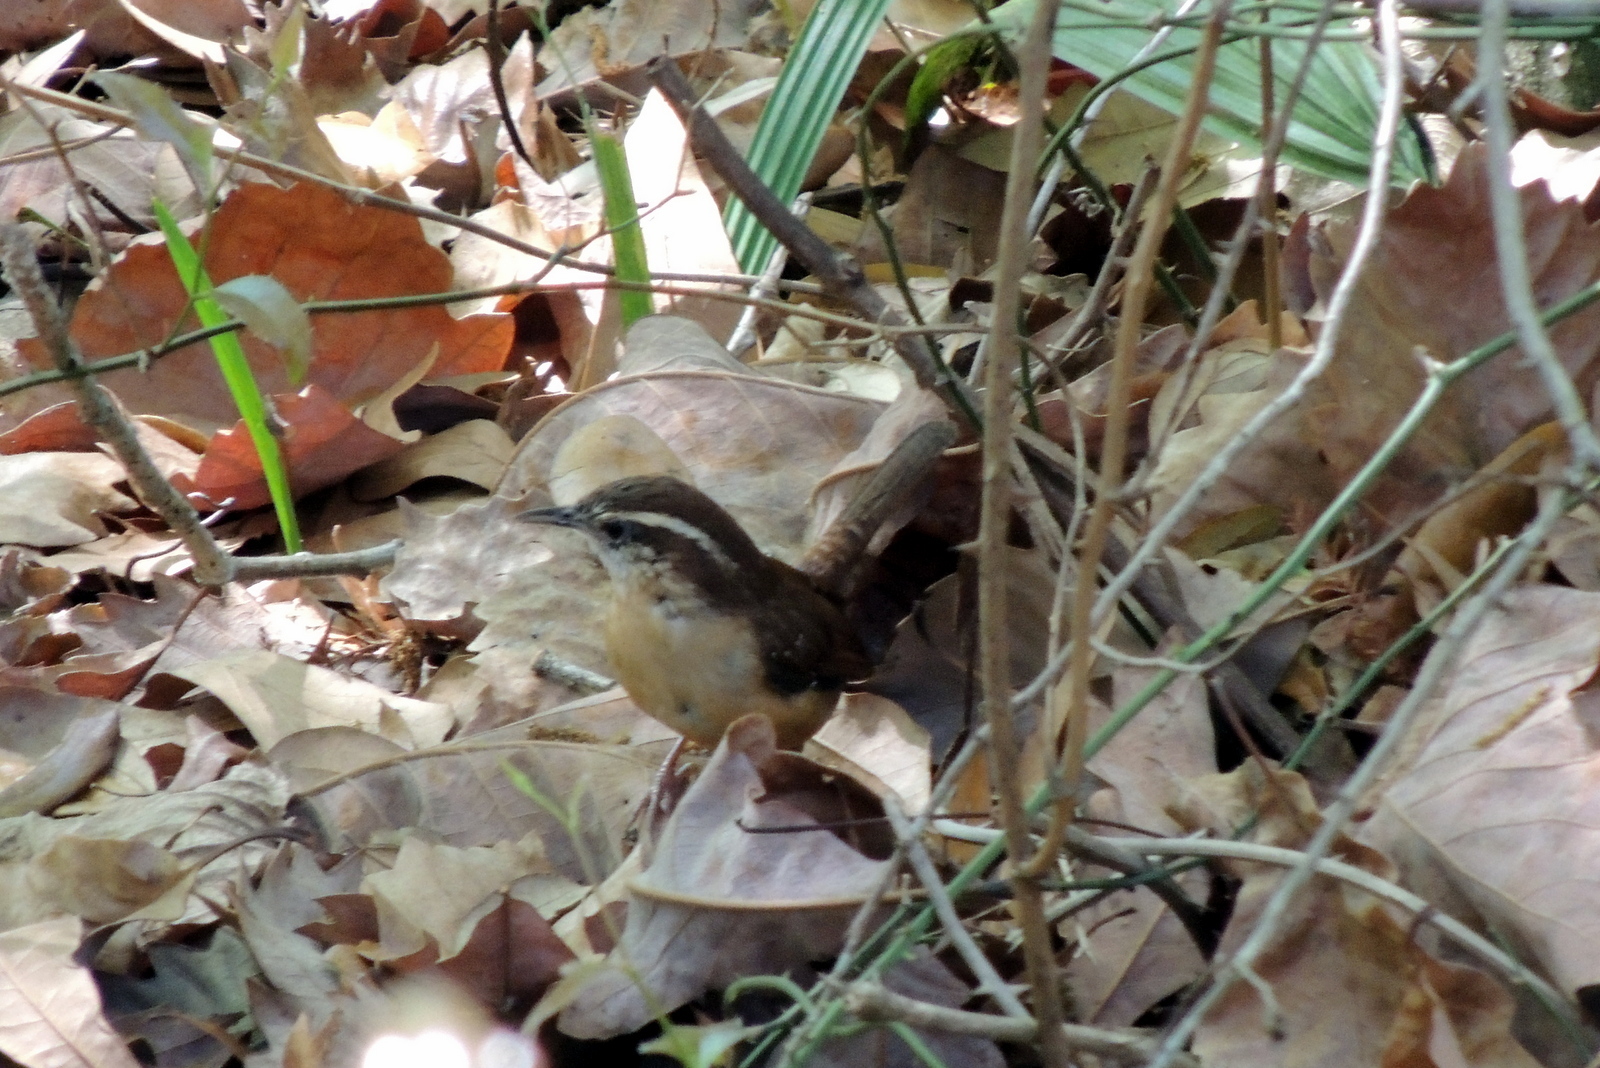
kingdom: Animalia
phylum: Chordata
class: Aves
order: Passeriformes
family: Troglodytidae
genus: Thryothorus
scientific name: Thryothorus ludovicianus
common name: Carolina wren
